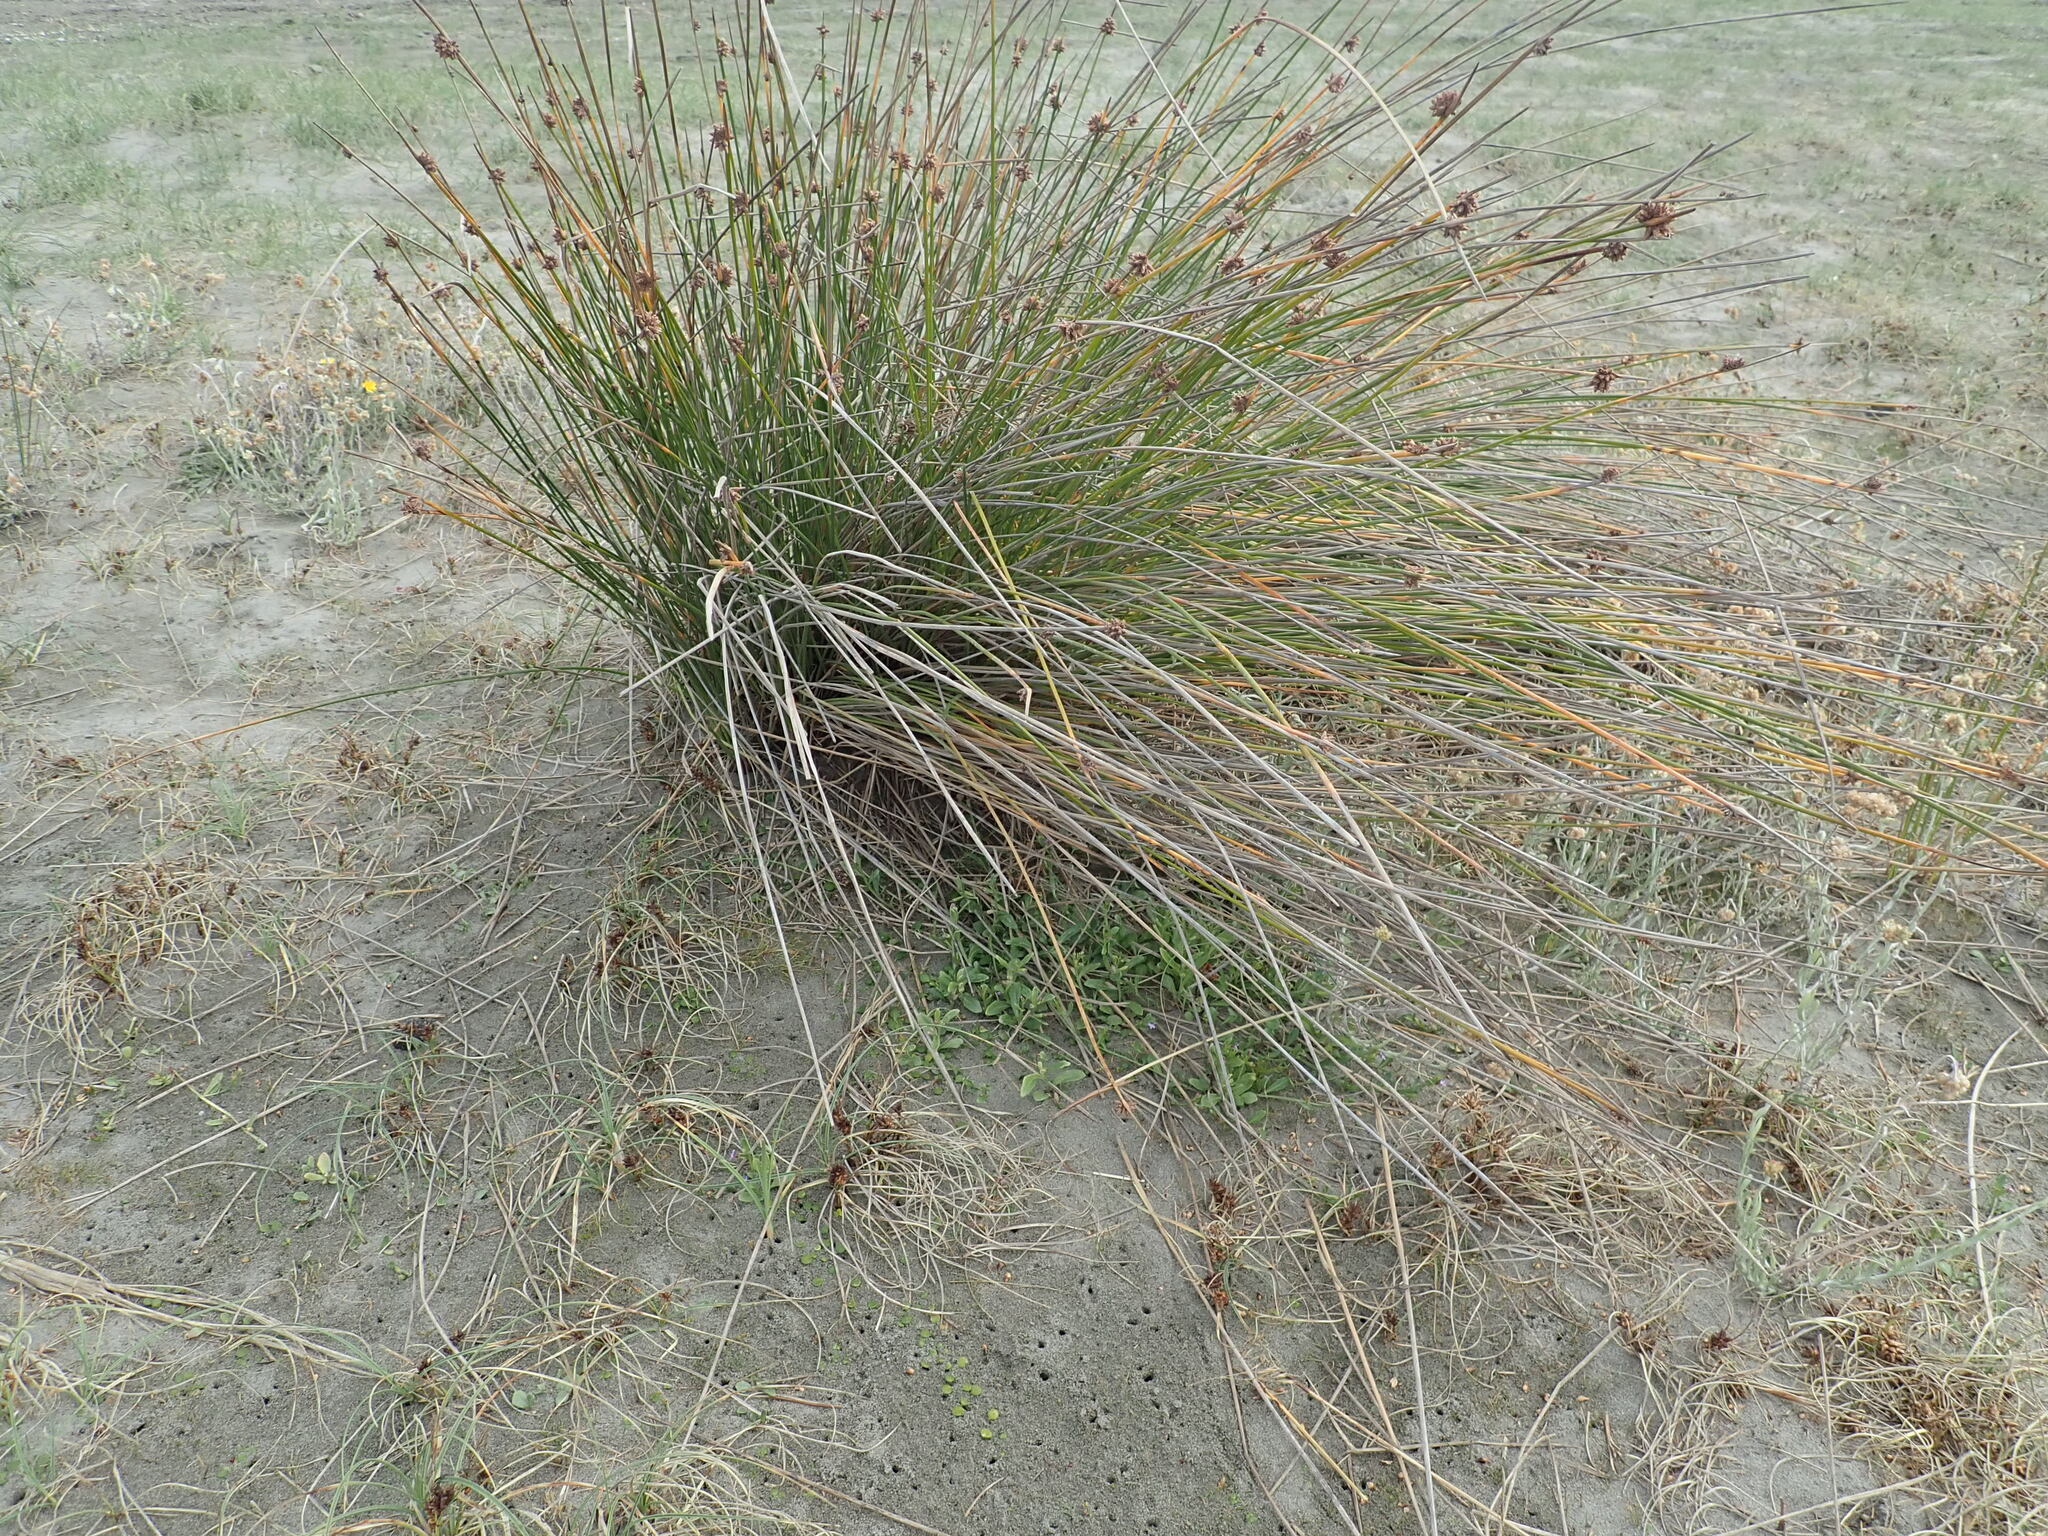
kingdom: Plantae
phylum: Tracheophyta
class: Liliopsida
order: Poales
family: Cyperaceae
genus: Ficinia
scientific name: Ficinia nodosa
